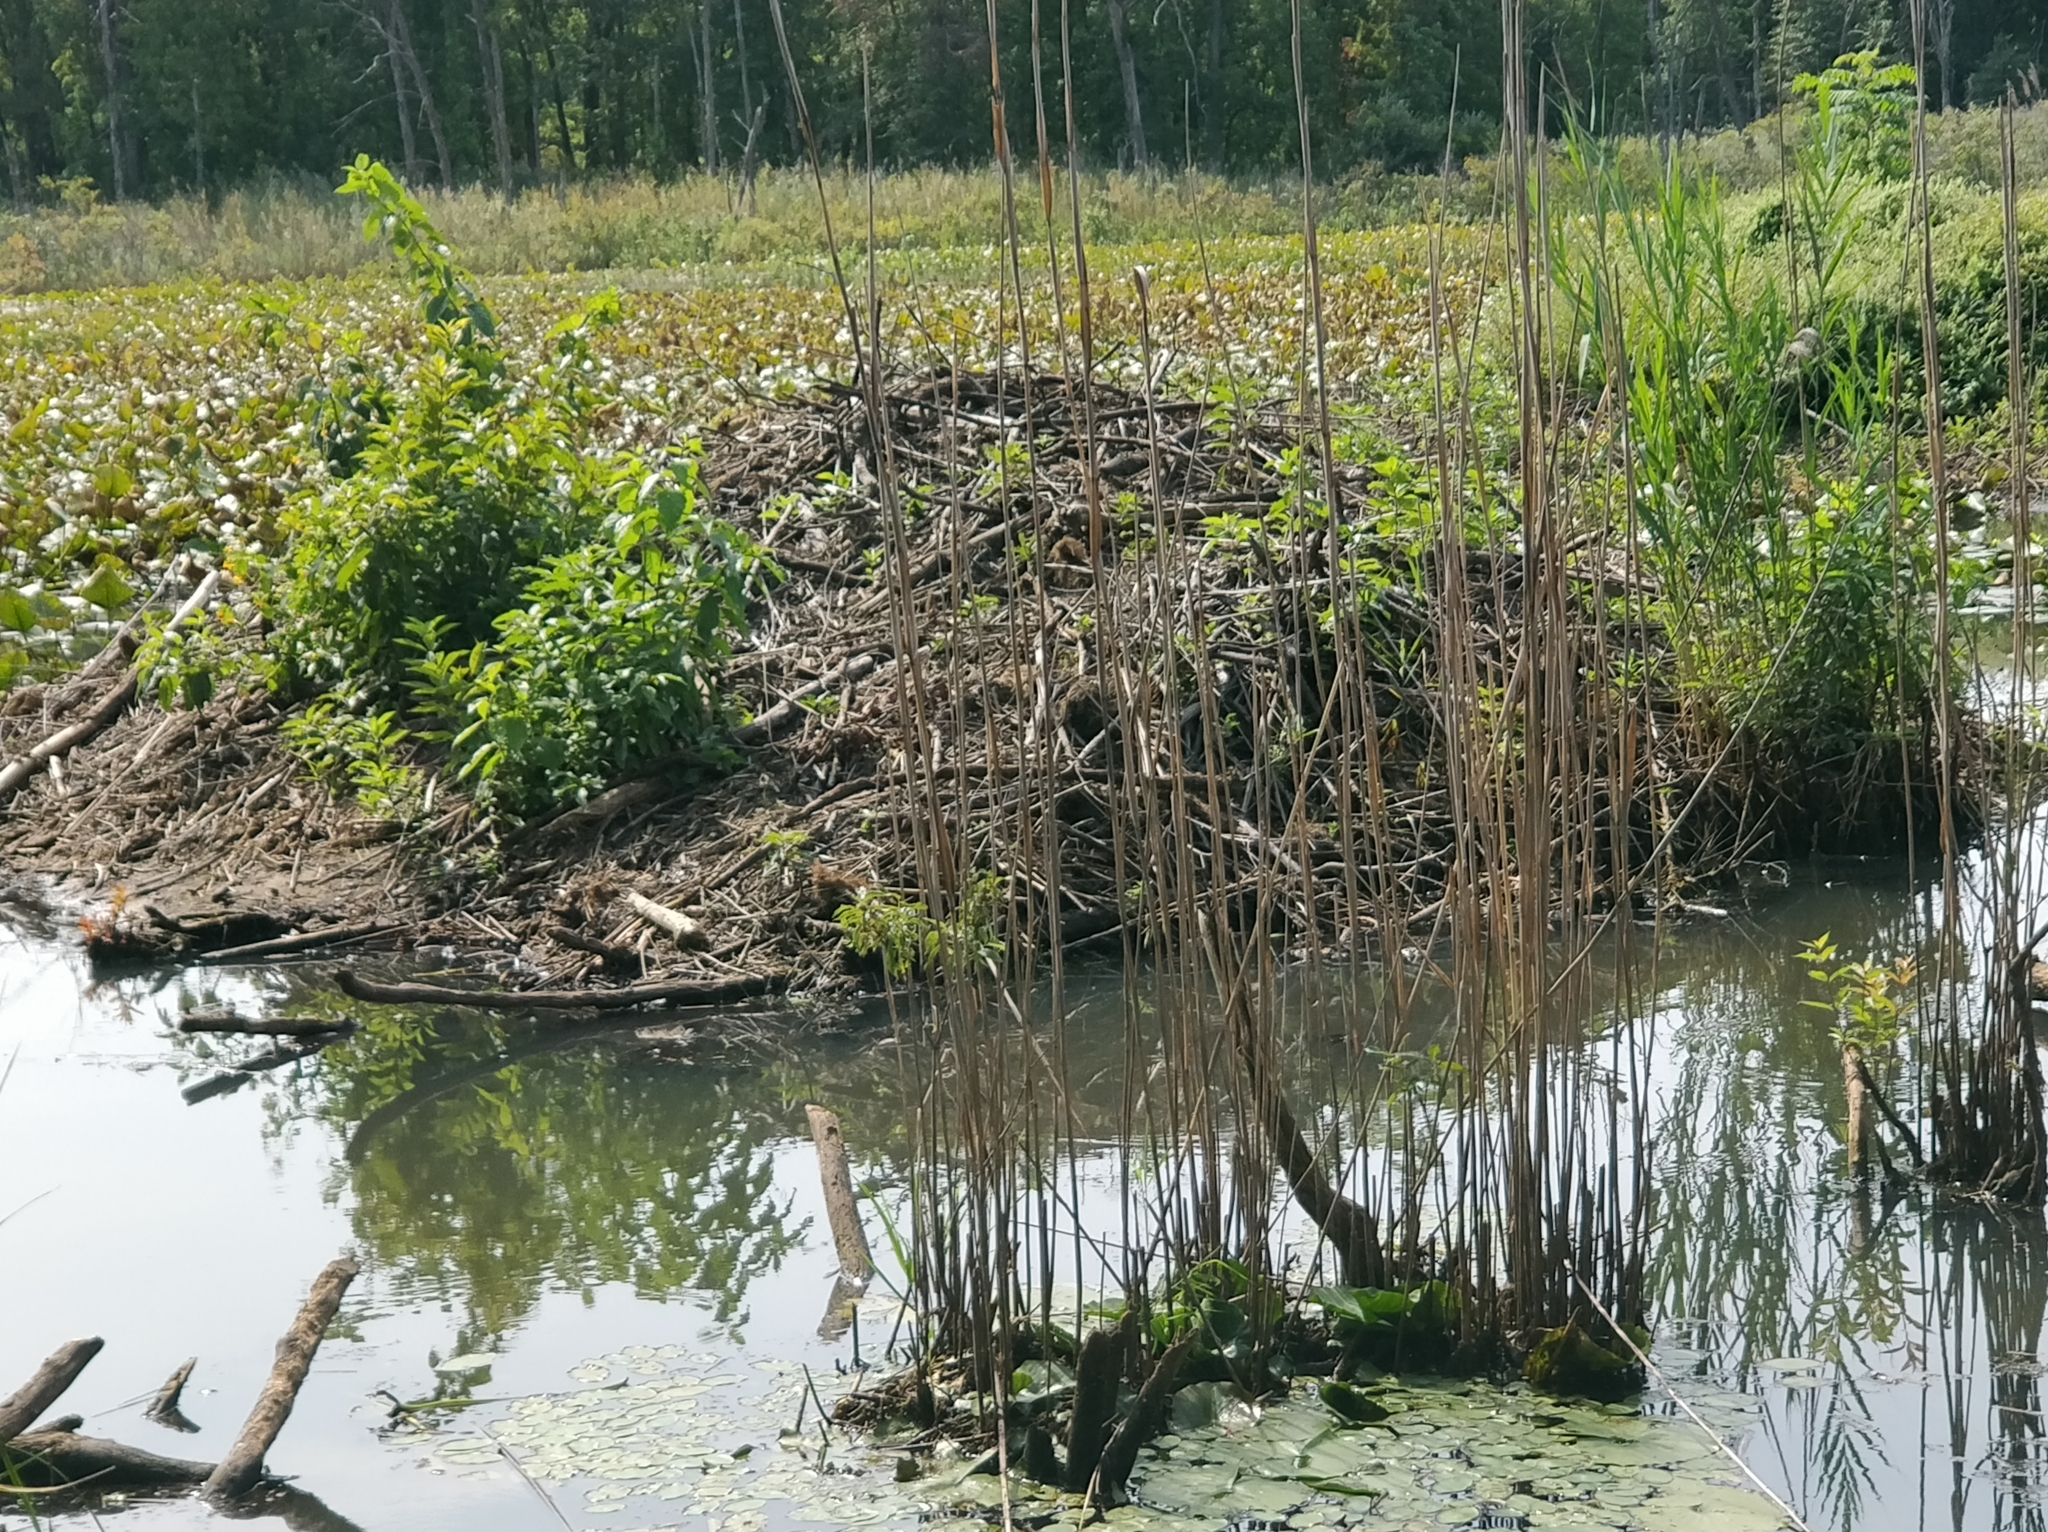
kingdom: Animalia
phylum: Chordata
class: Mammalia
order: Rodentia
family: Castoridae
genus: Castor
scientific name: Castor canadensis
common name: American beaver
